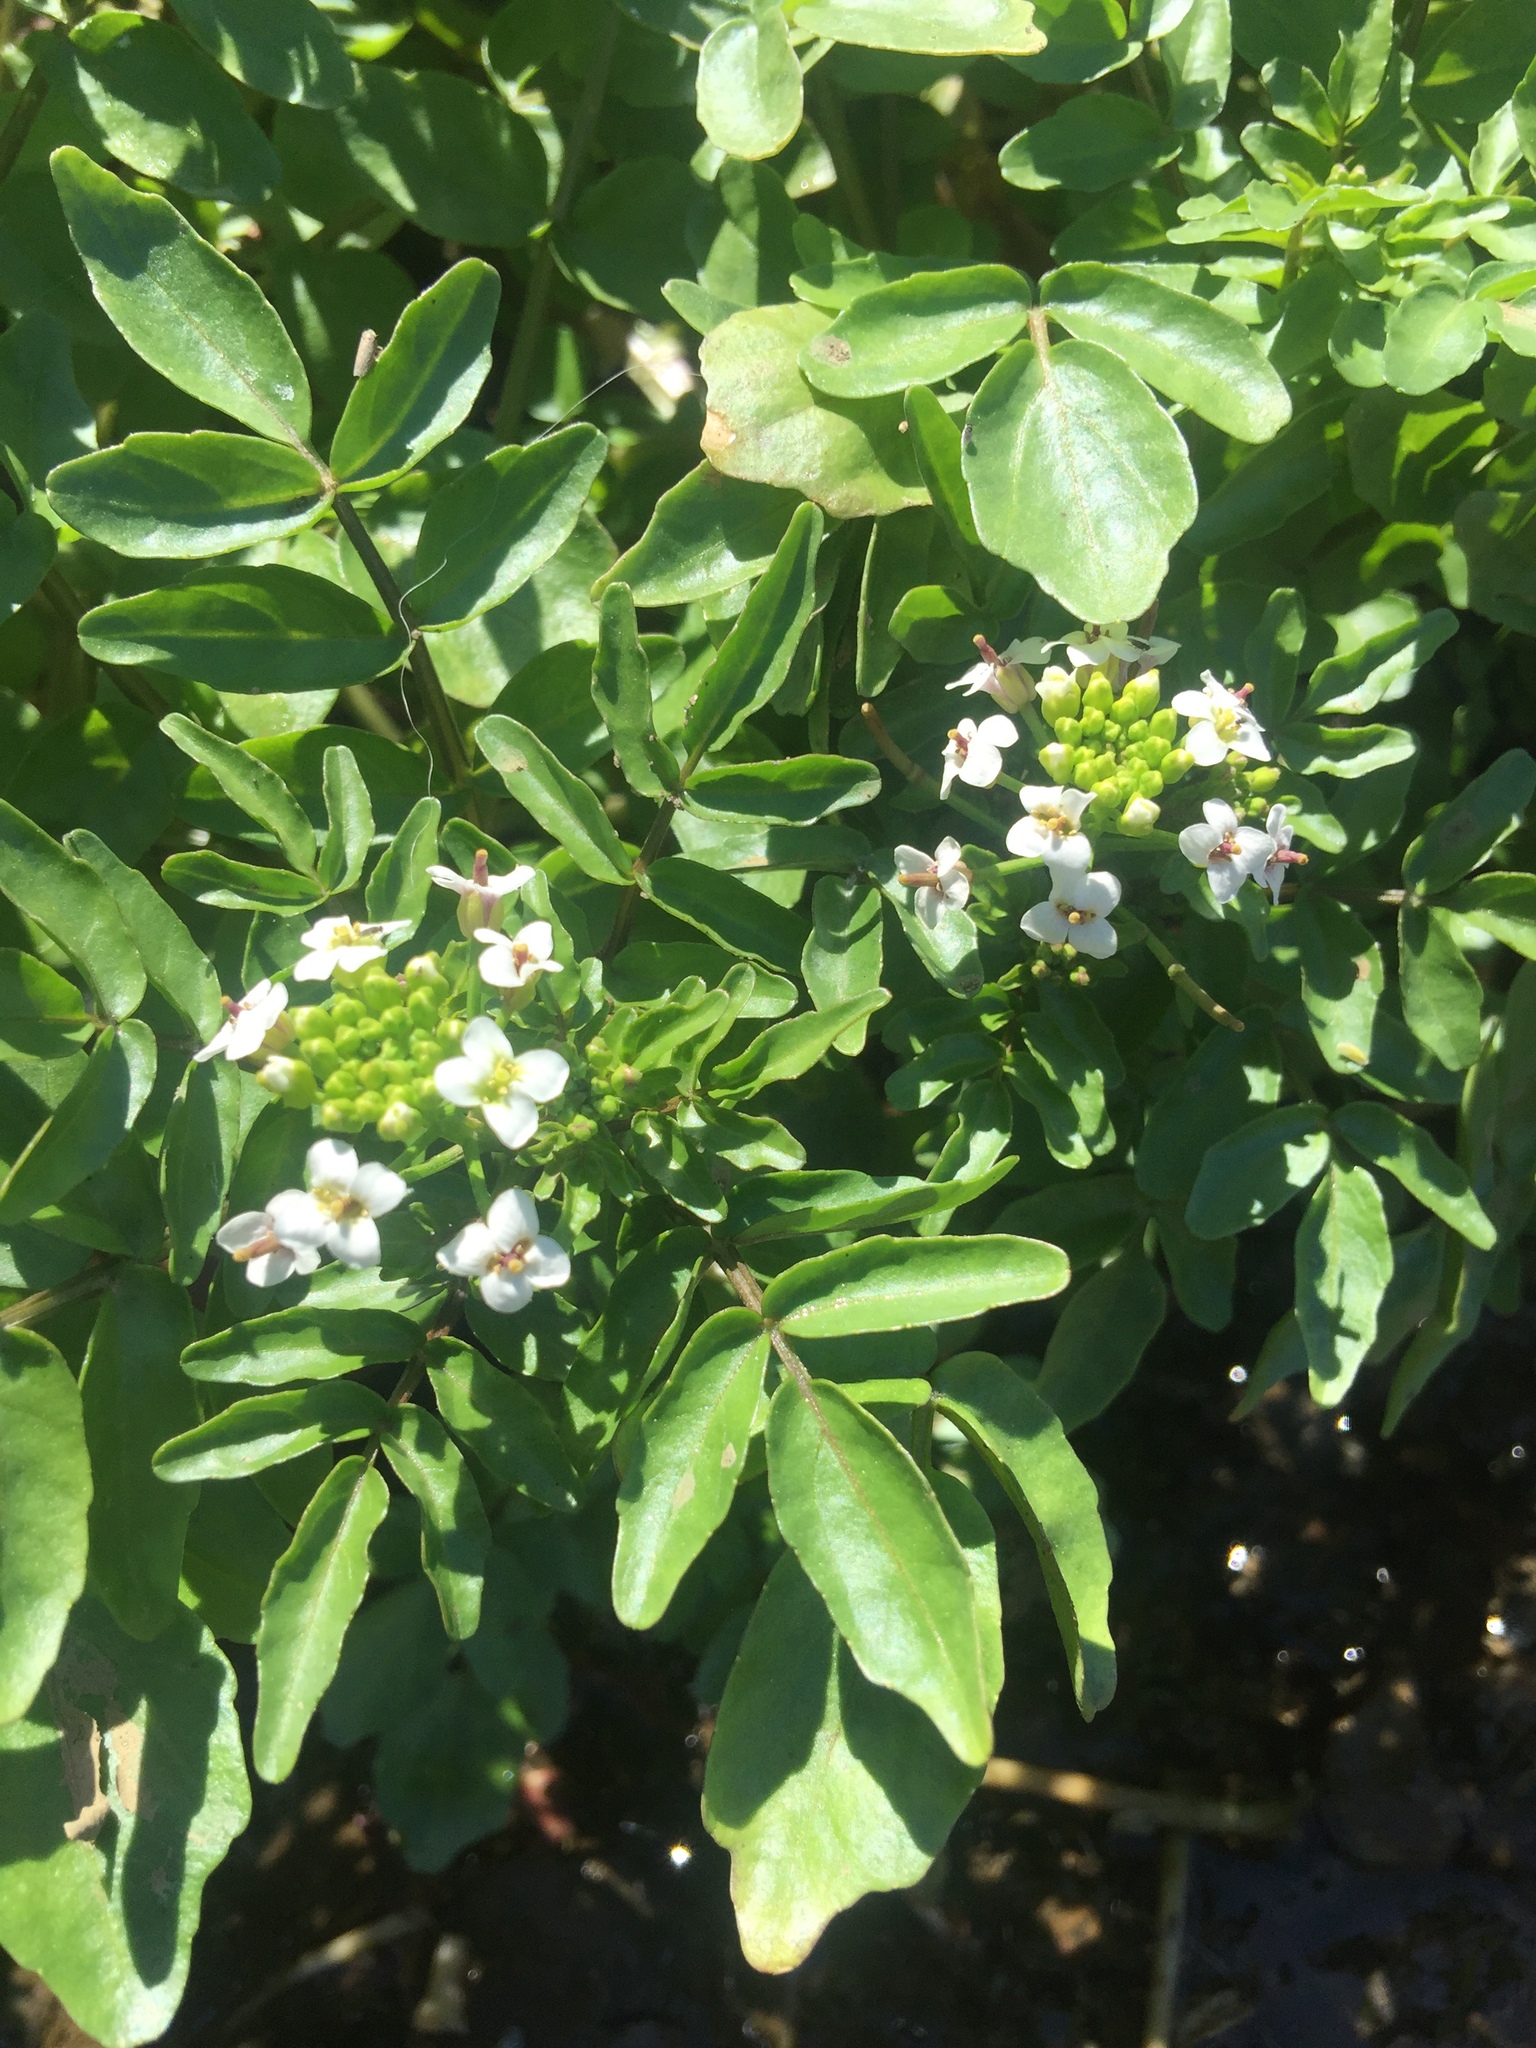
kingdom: Plantae
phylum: Tracheophyta
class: Magnoliopsida
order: Brassicales
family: Brassicaceae
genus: Nasturtium
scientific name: Nasturtium officinale
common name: Watercress
